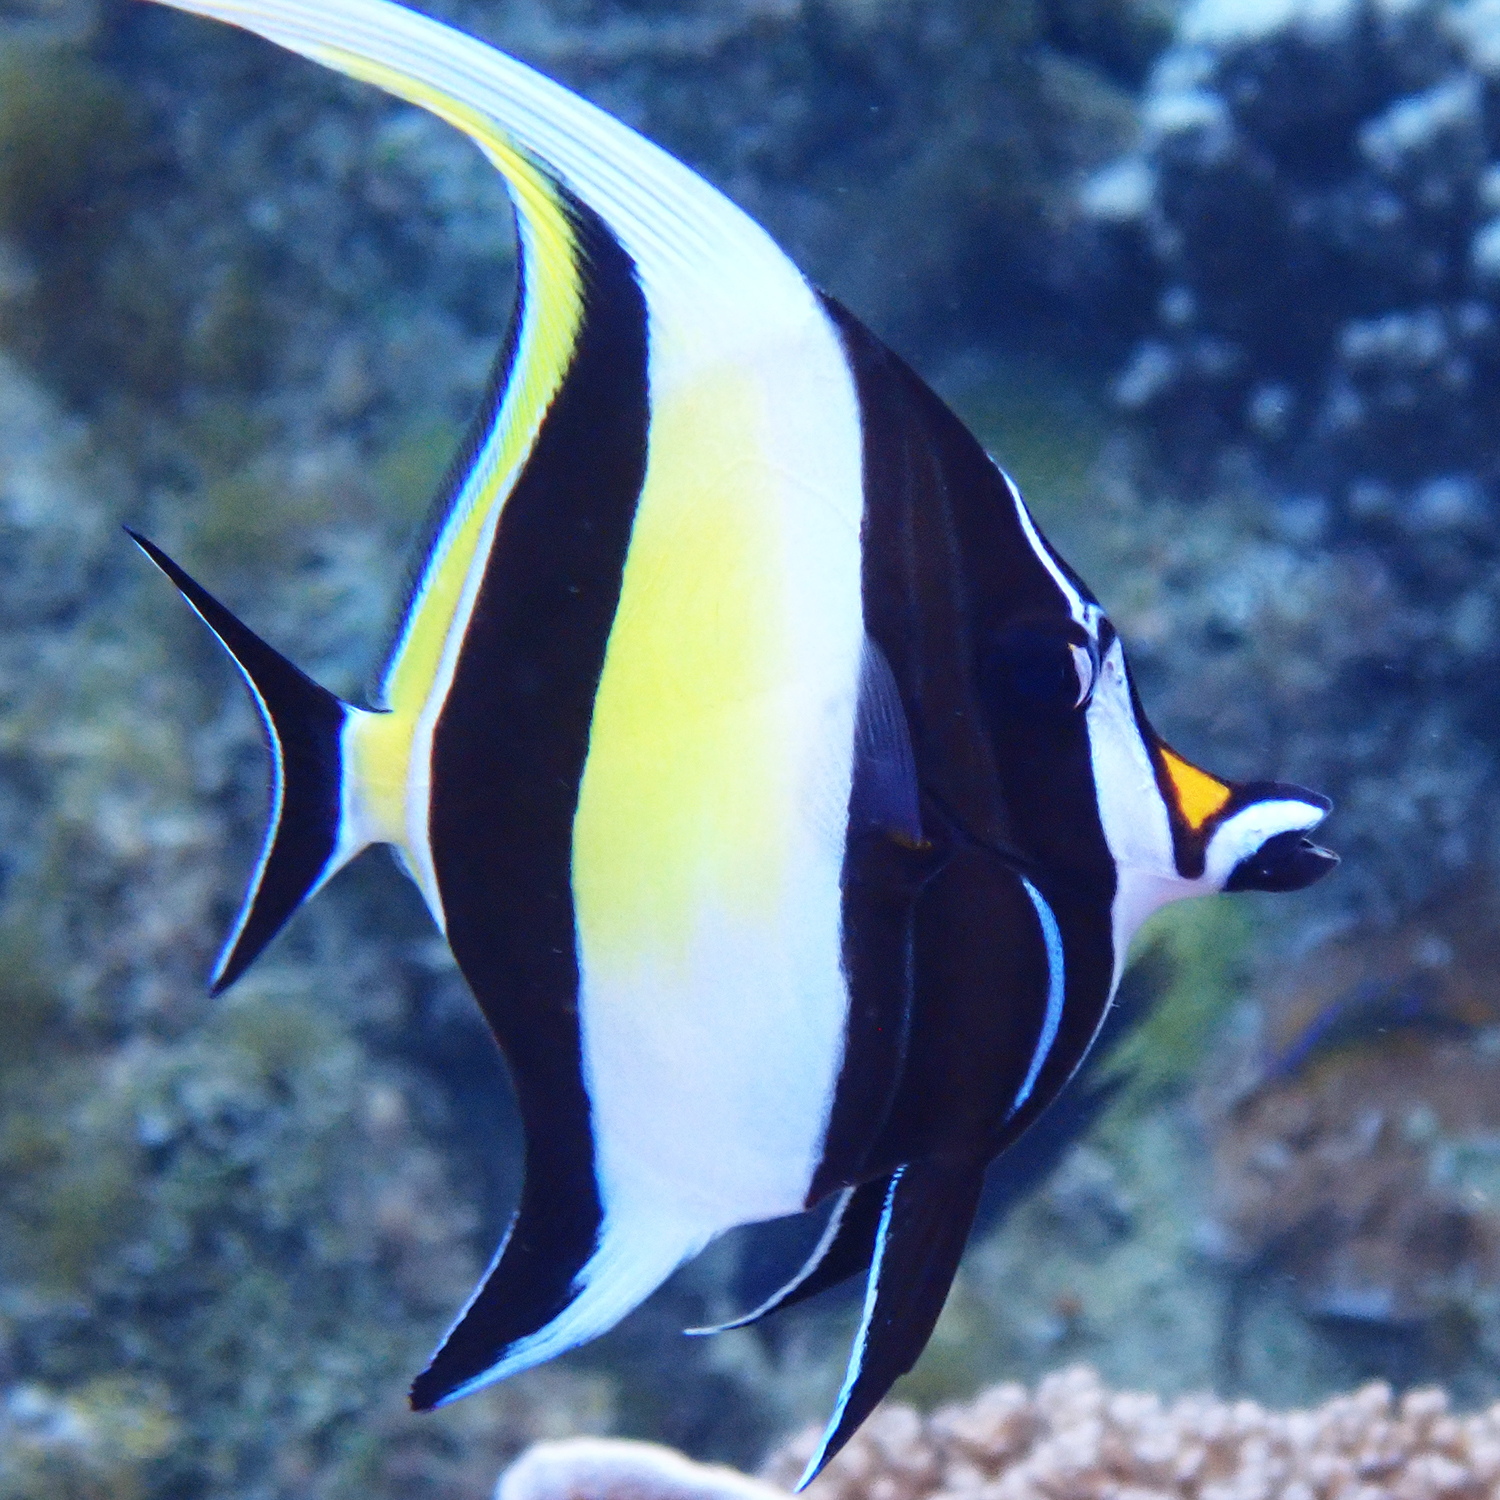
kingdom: Animalia
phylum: Chordata
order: Perciformes
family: Zanclidae
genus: Zanclus
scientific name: Zanclus cornutus
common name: Moorish idol
